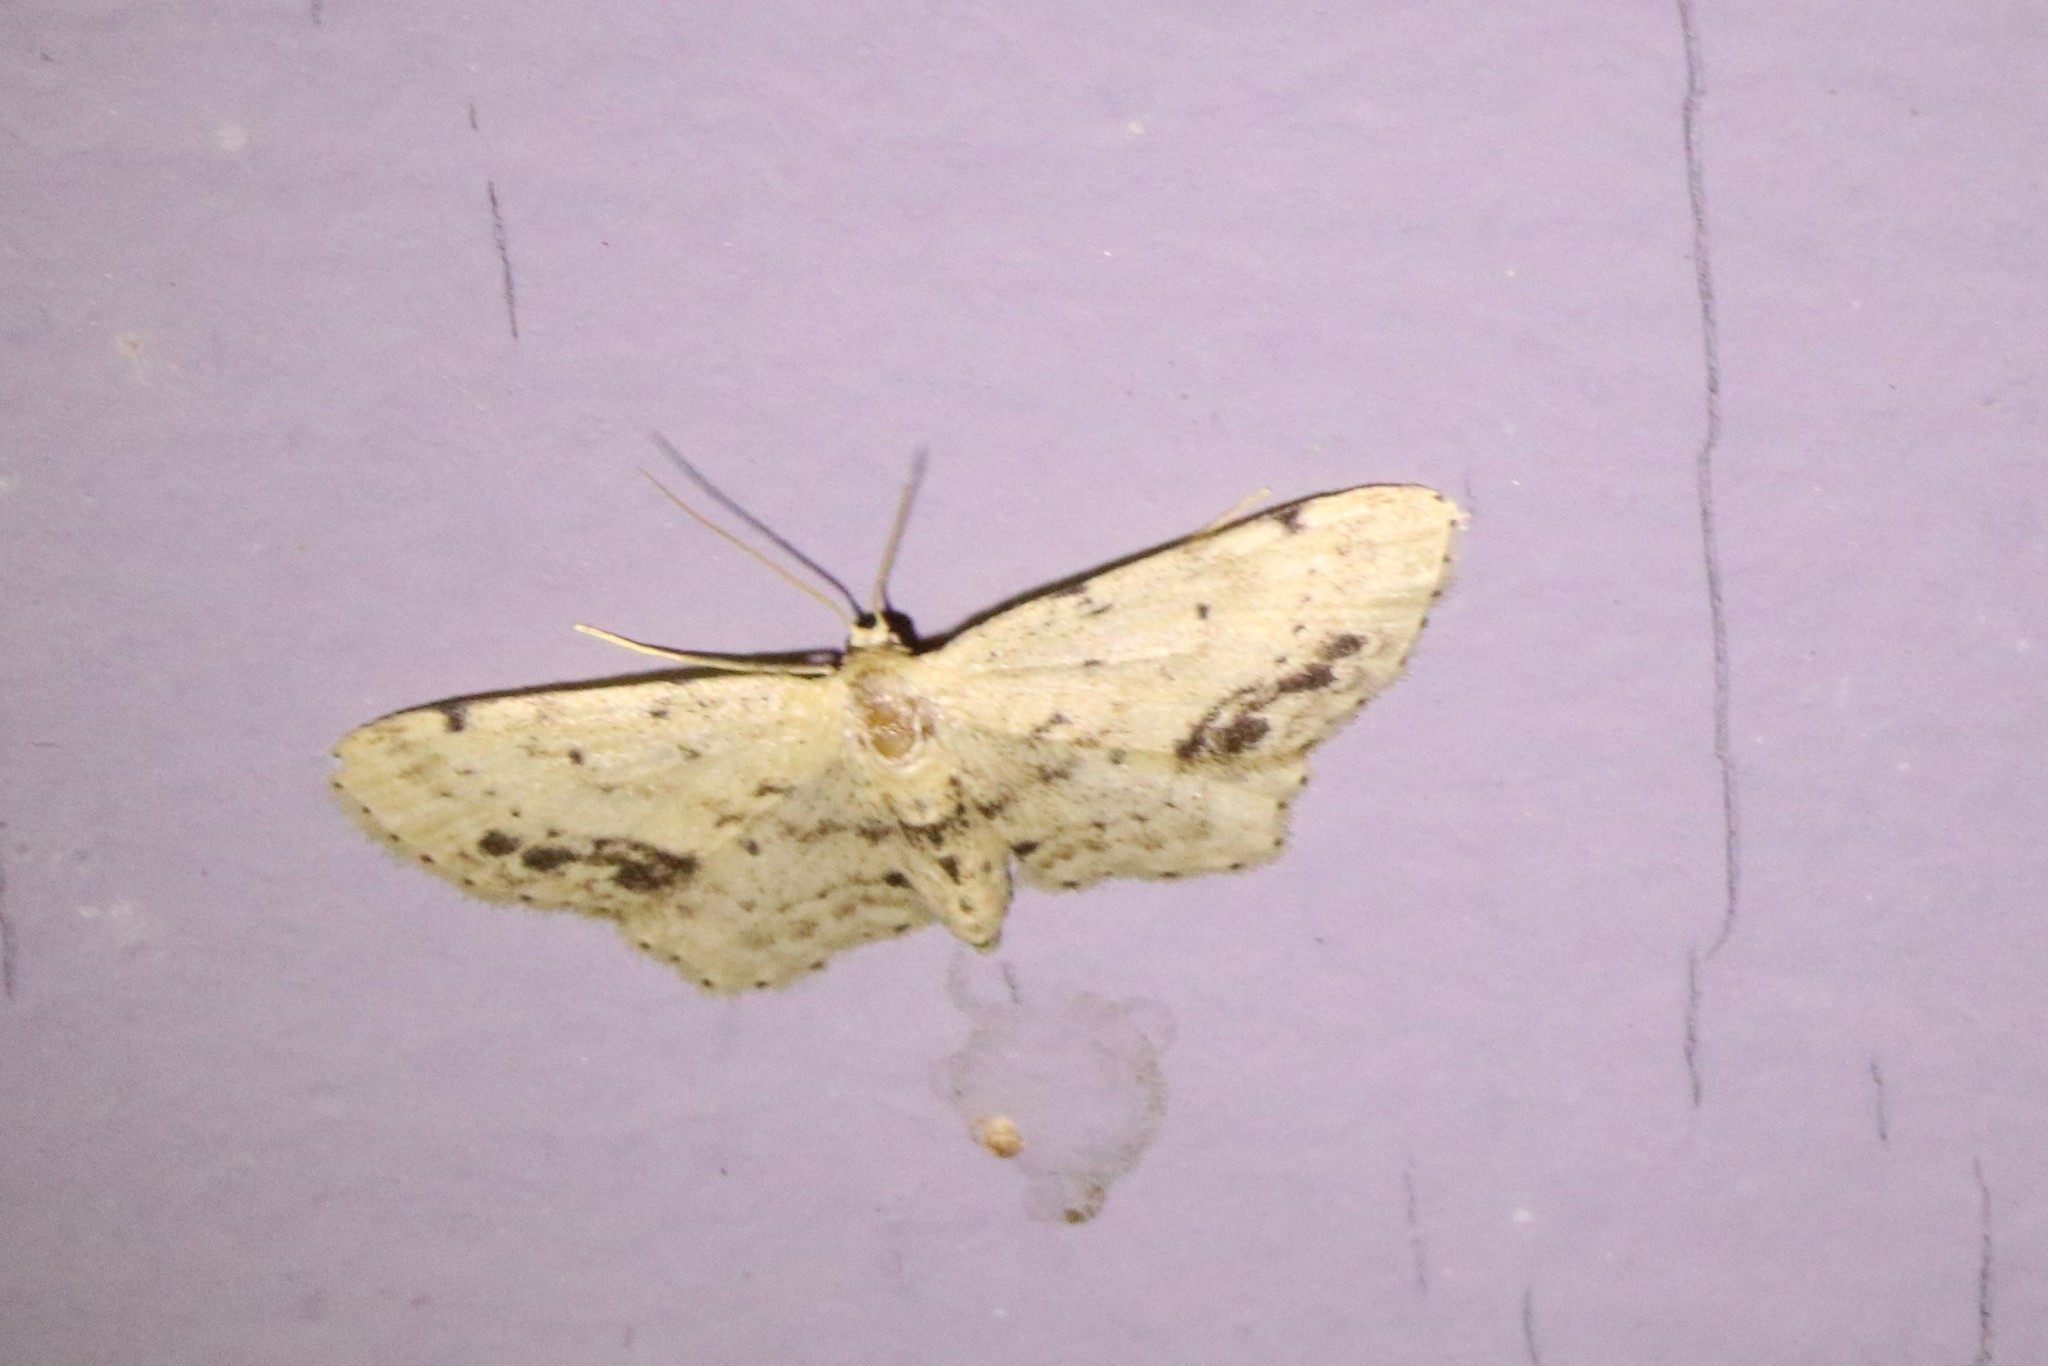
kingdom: Animalia
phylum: Arthropoda
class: Insecta
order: Lepidoptera
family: Geometridae
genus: Idaea
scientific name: Idaea dimidiata
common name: Single-dotted wave
